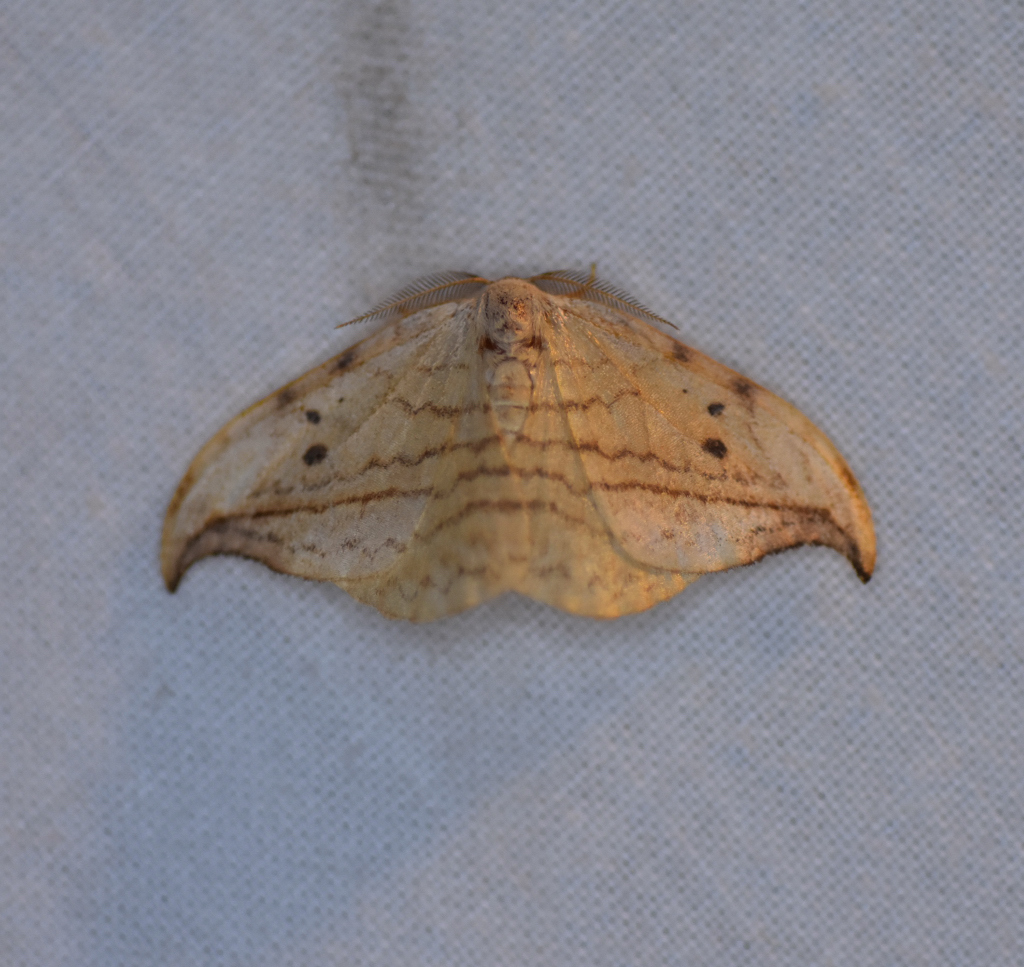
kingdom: Animalia
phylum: Arthropoda
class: Insecta
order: Lepidoptera
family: Drepanidae
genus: Drepana
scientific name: Drepana arcuata
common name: Arched hooktip moth
